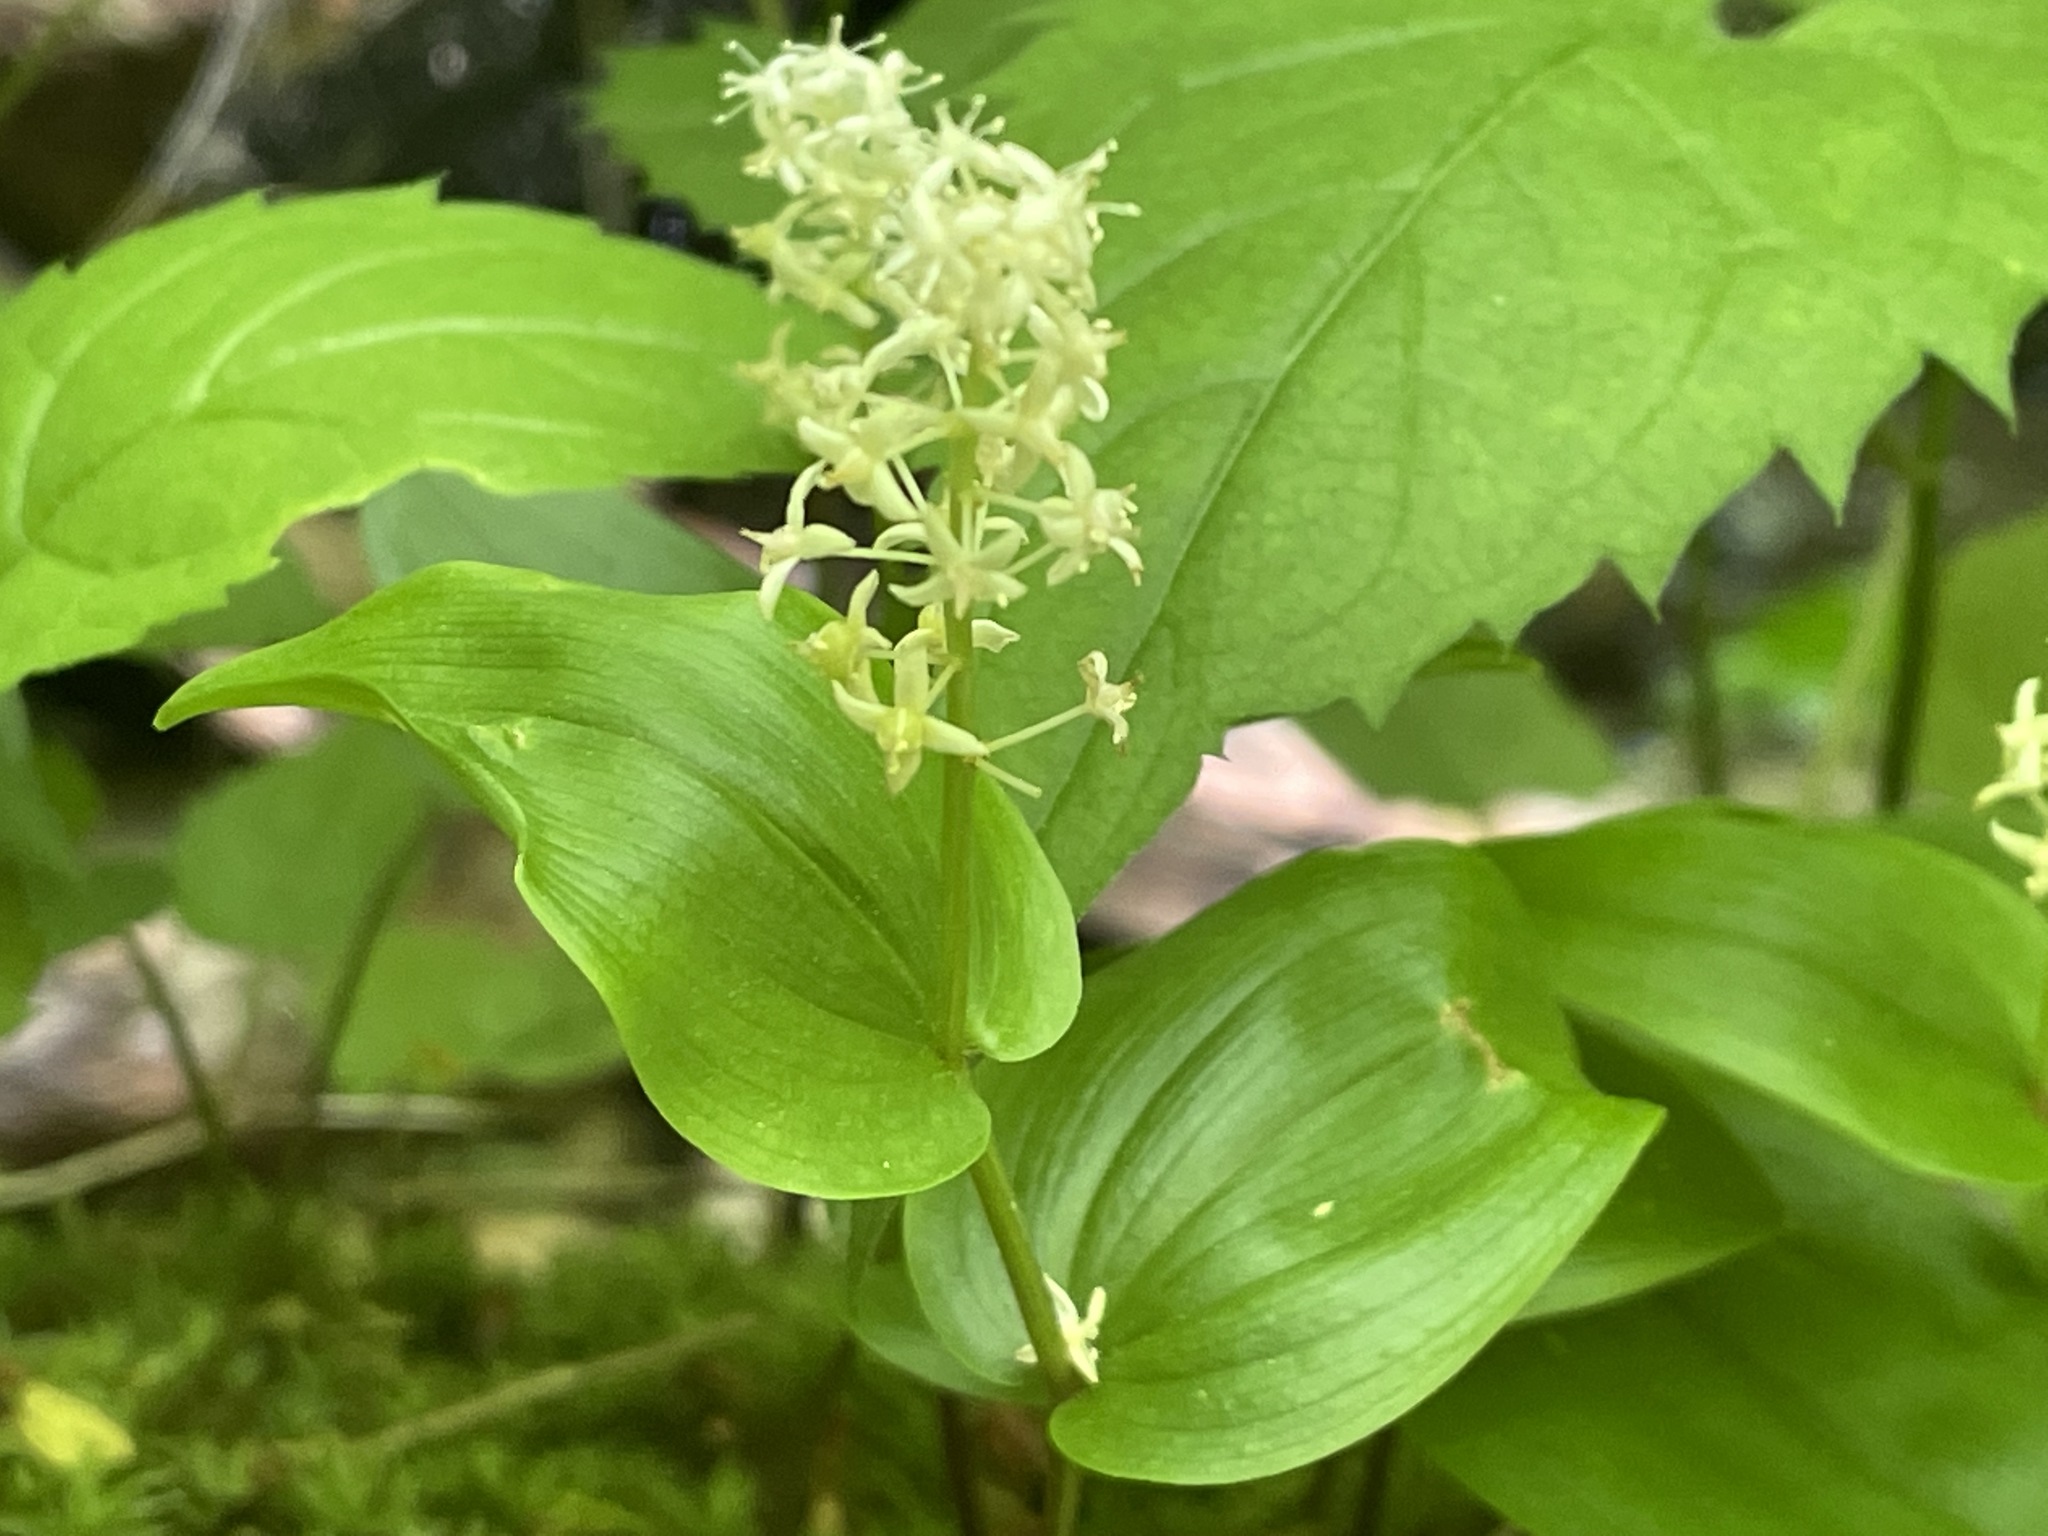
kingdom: Plantae
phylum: Tracheophyta
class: Liliopsida
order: Asparagales
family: Asparagaceae
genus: Maianthemum
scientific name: Maianthemum canadense
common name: False lily-of-the-valley
